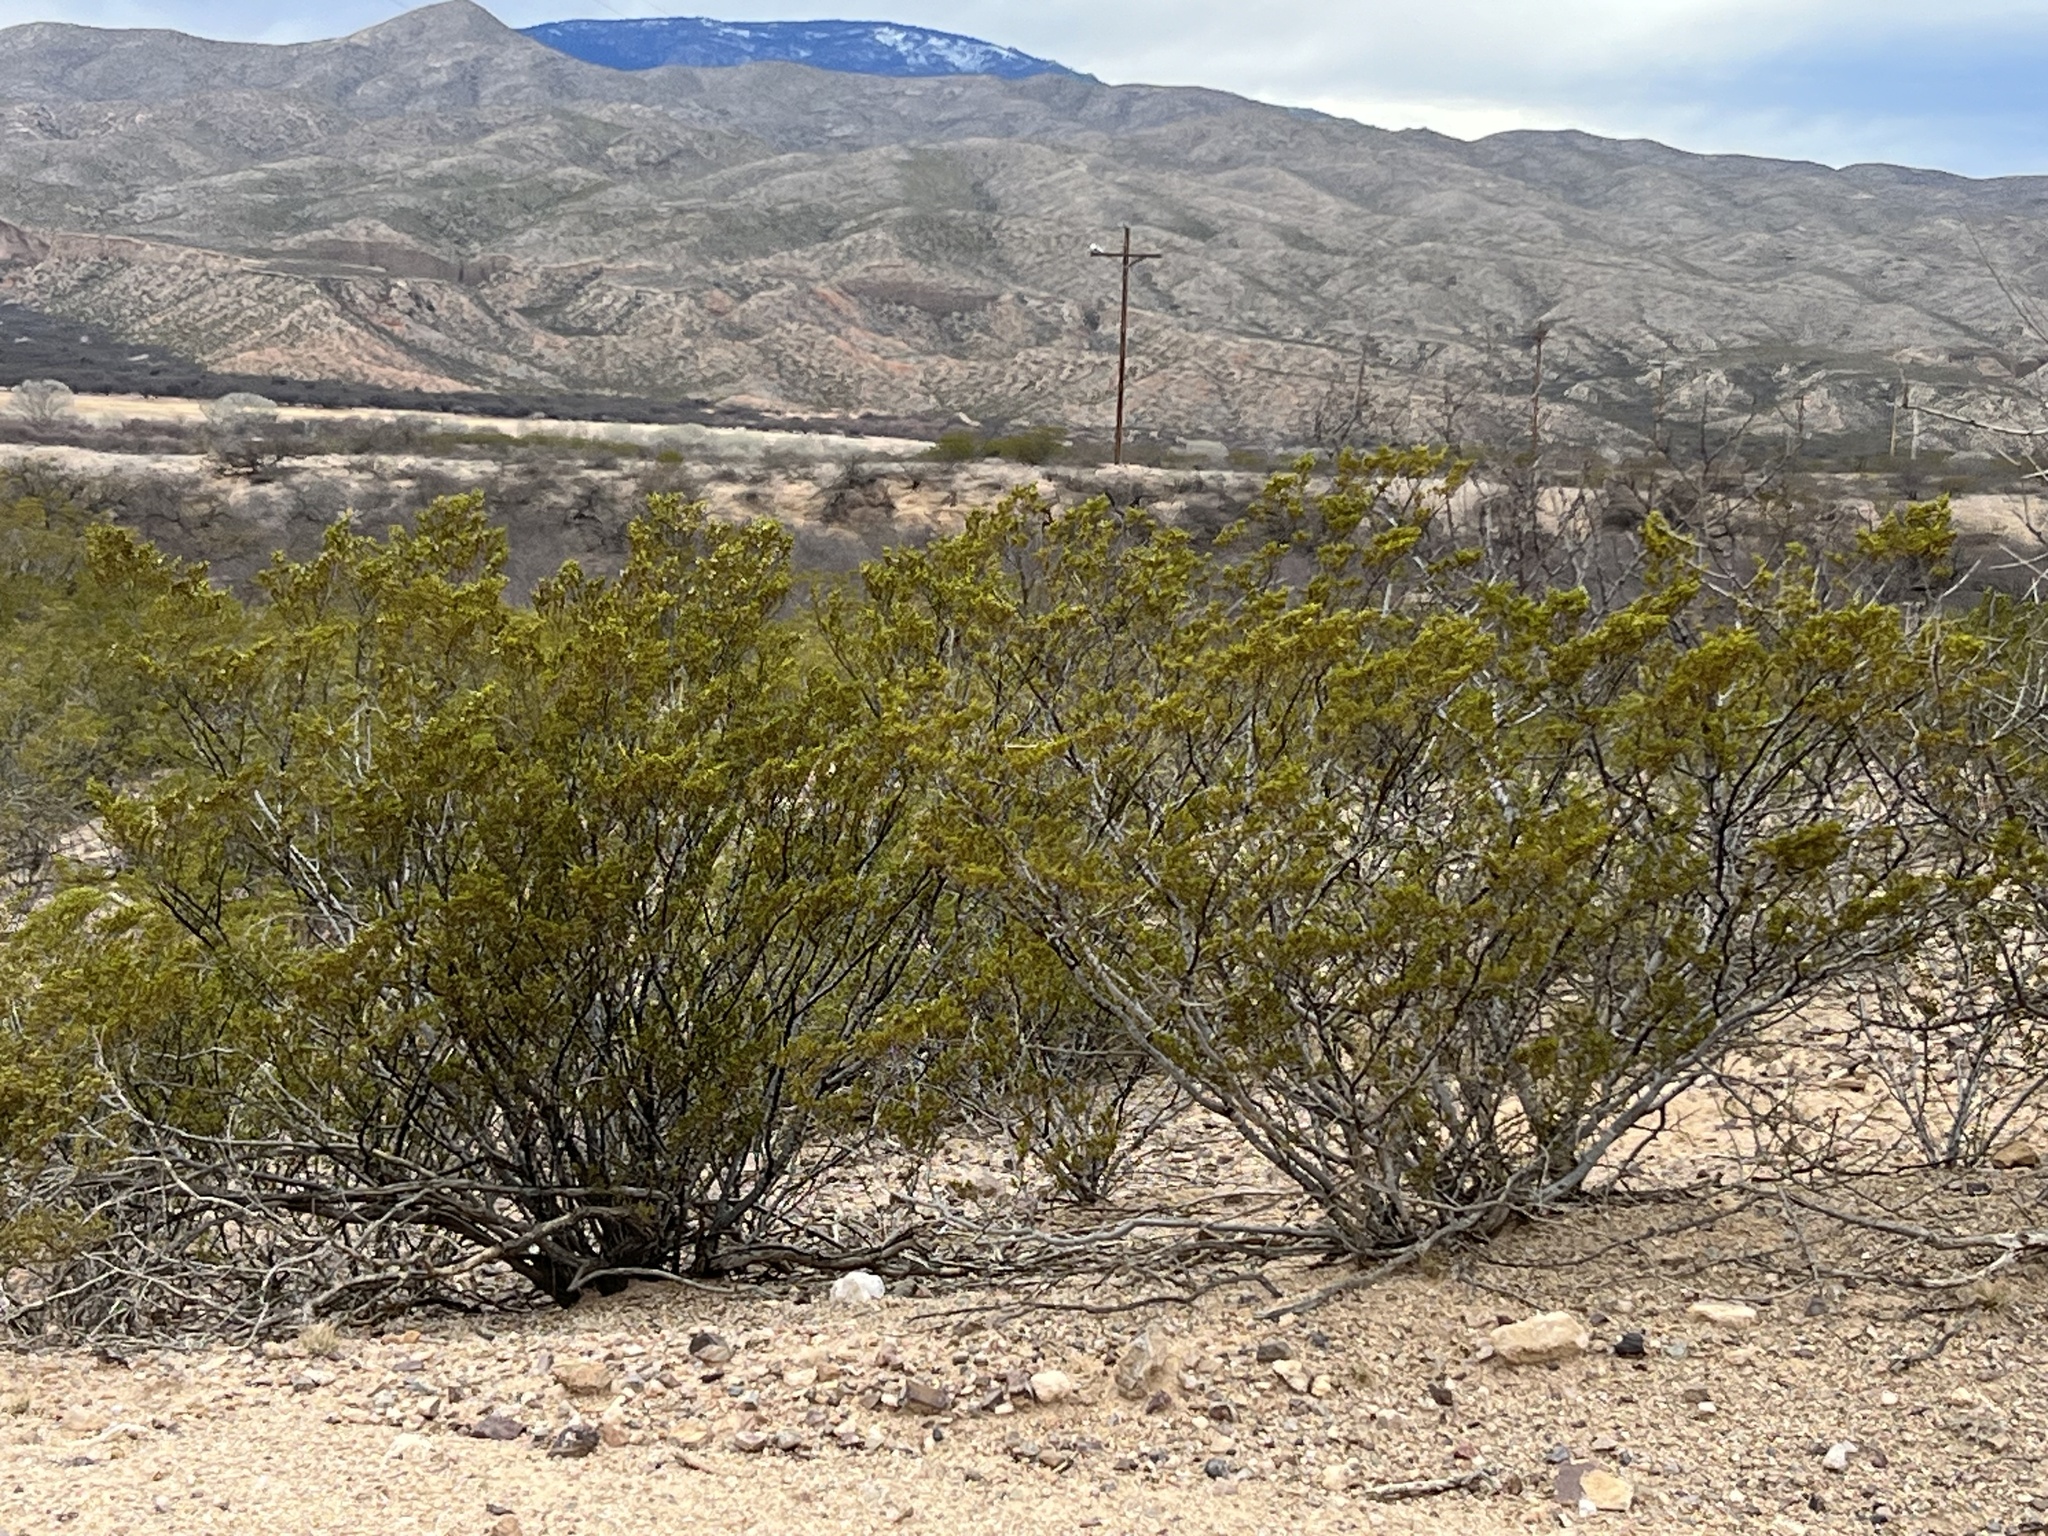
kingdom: Plantae
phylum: Tracheophyta
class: Magnoliopsida
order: Zygophyllales
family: Zygophyllaceae
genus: Larrea
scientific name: Larrea tridentata
